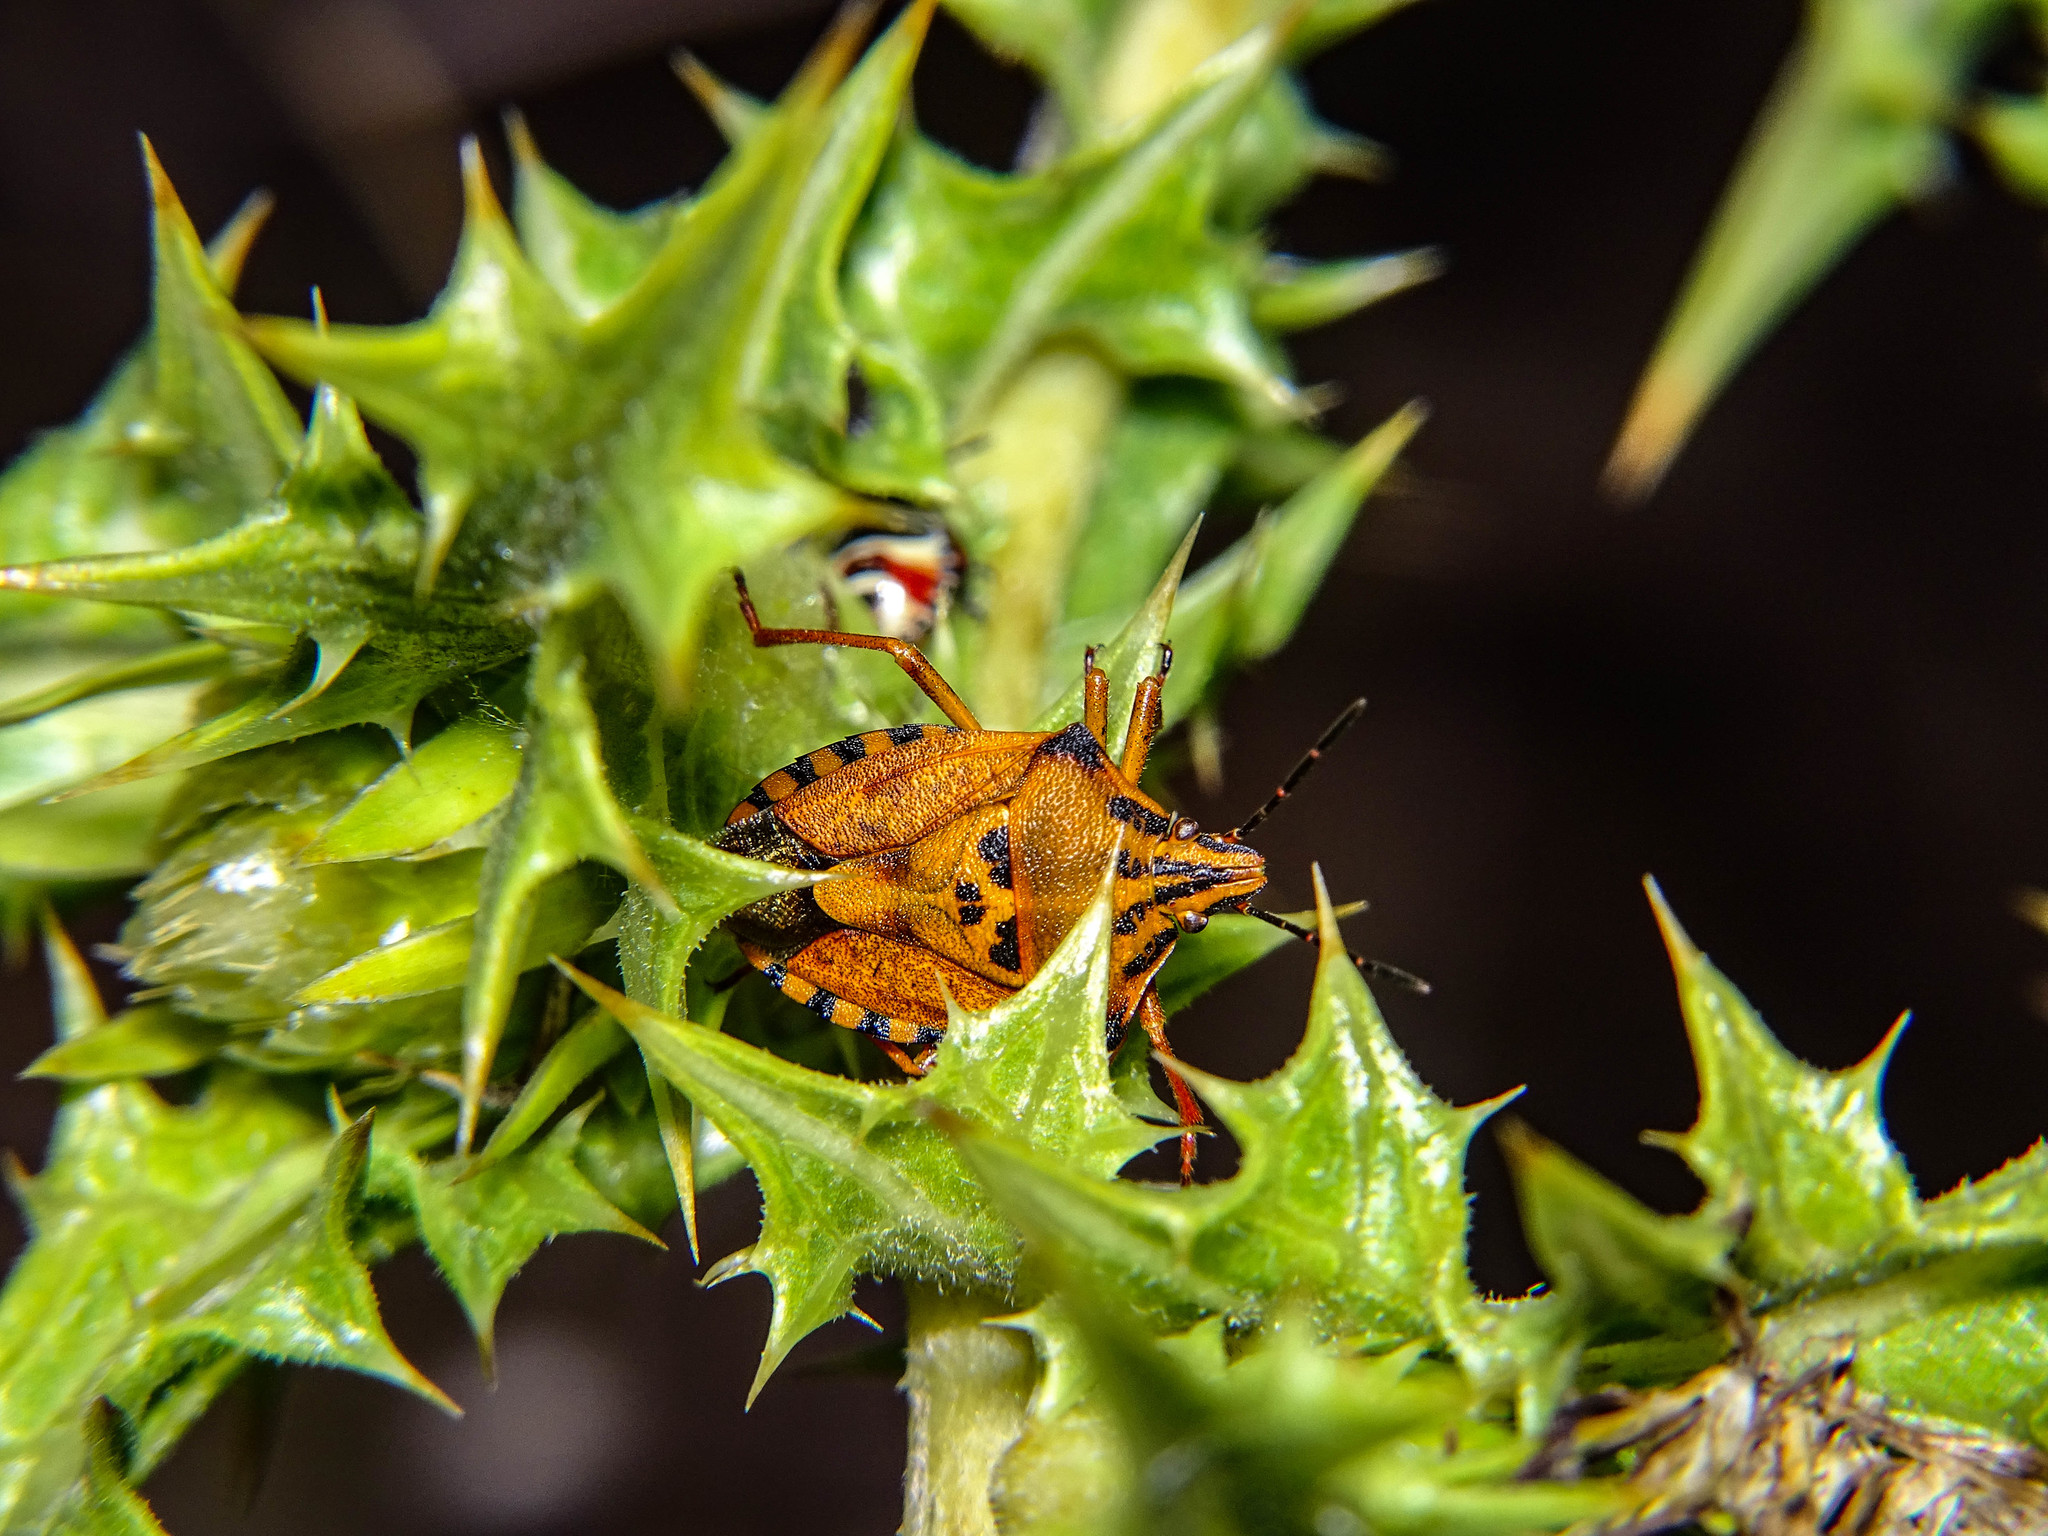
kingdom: Animalia
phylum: Arthropoda
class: Insecta
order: Hemiptera
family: Pentatomidae
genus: Carpocoris
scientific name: Carpocoris mediterraneus
